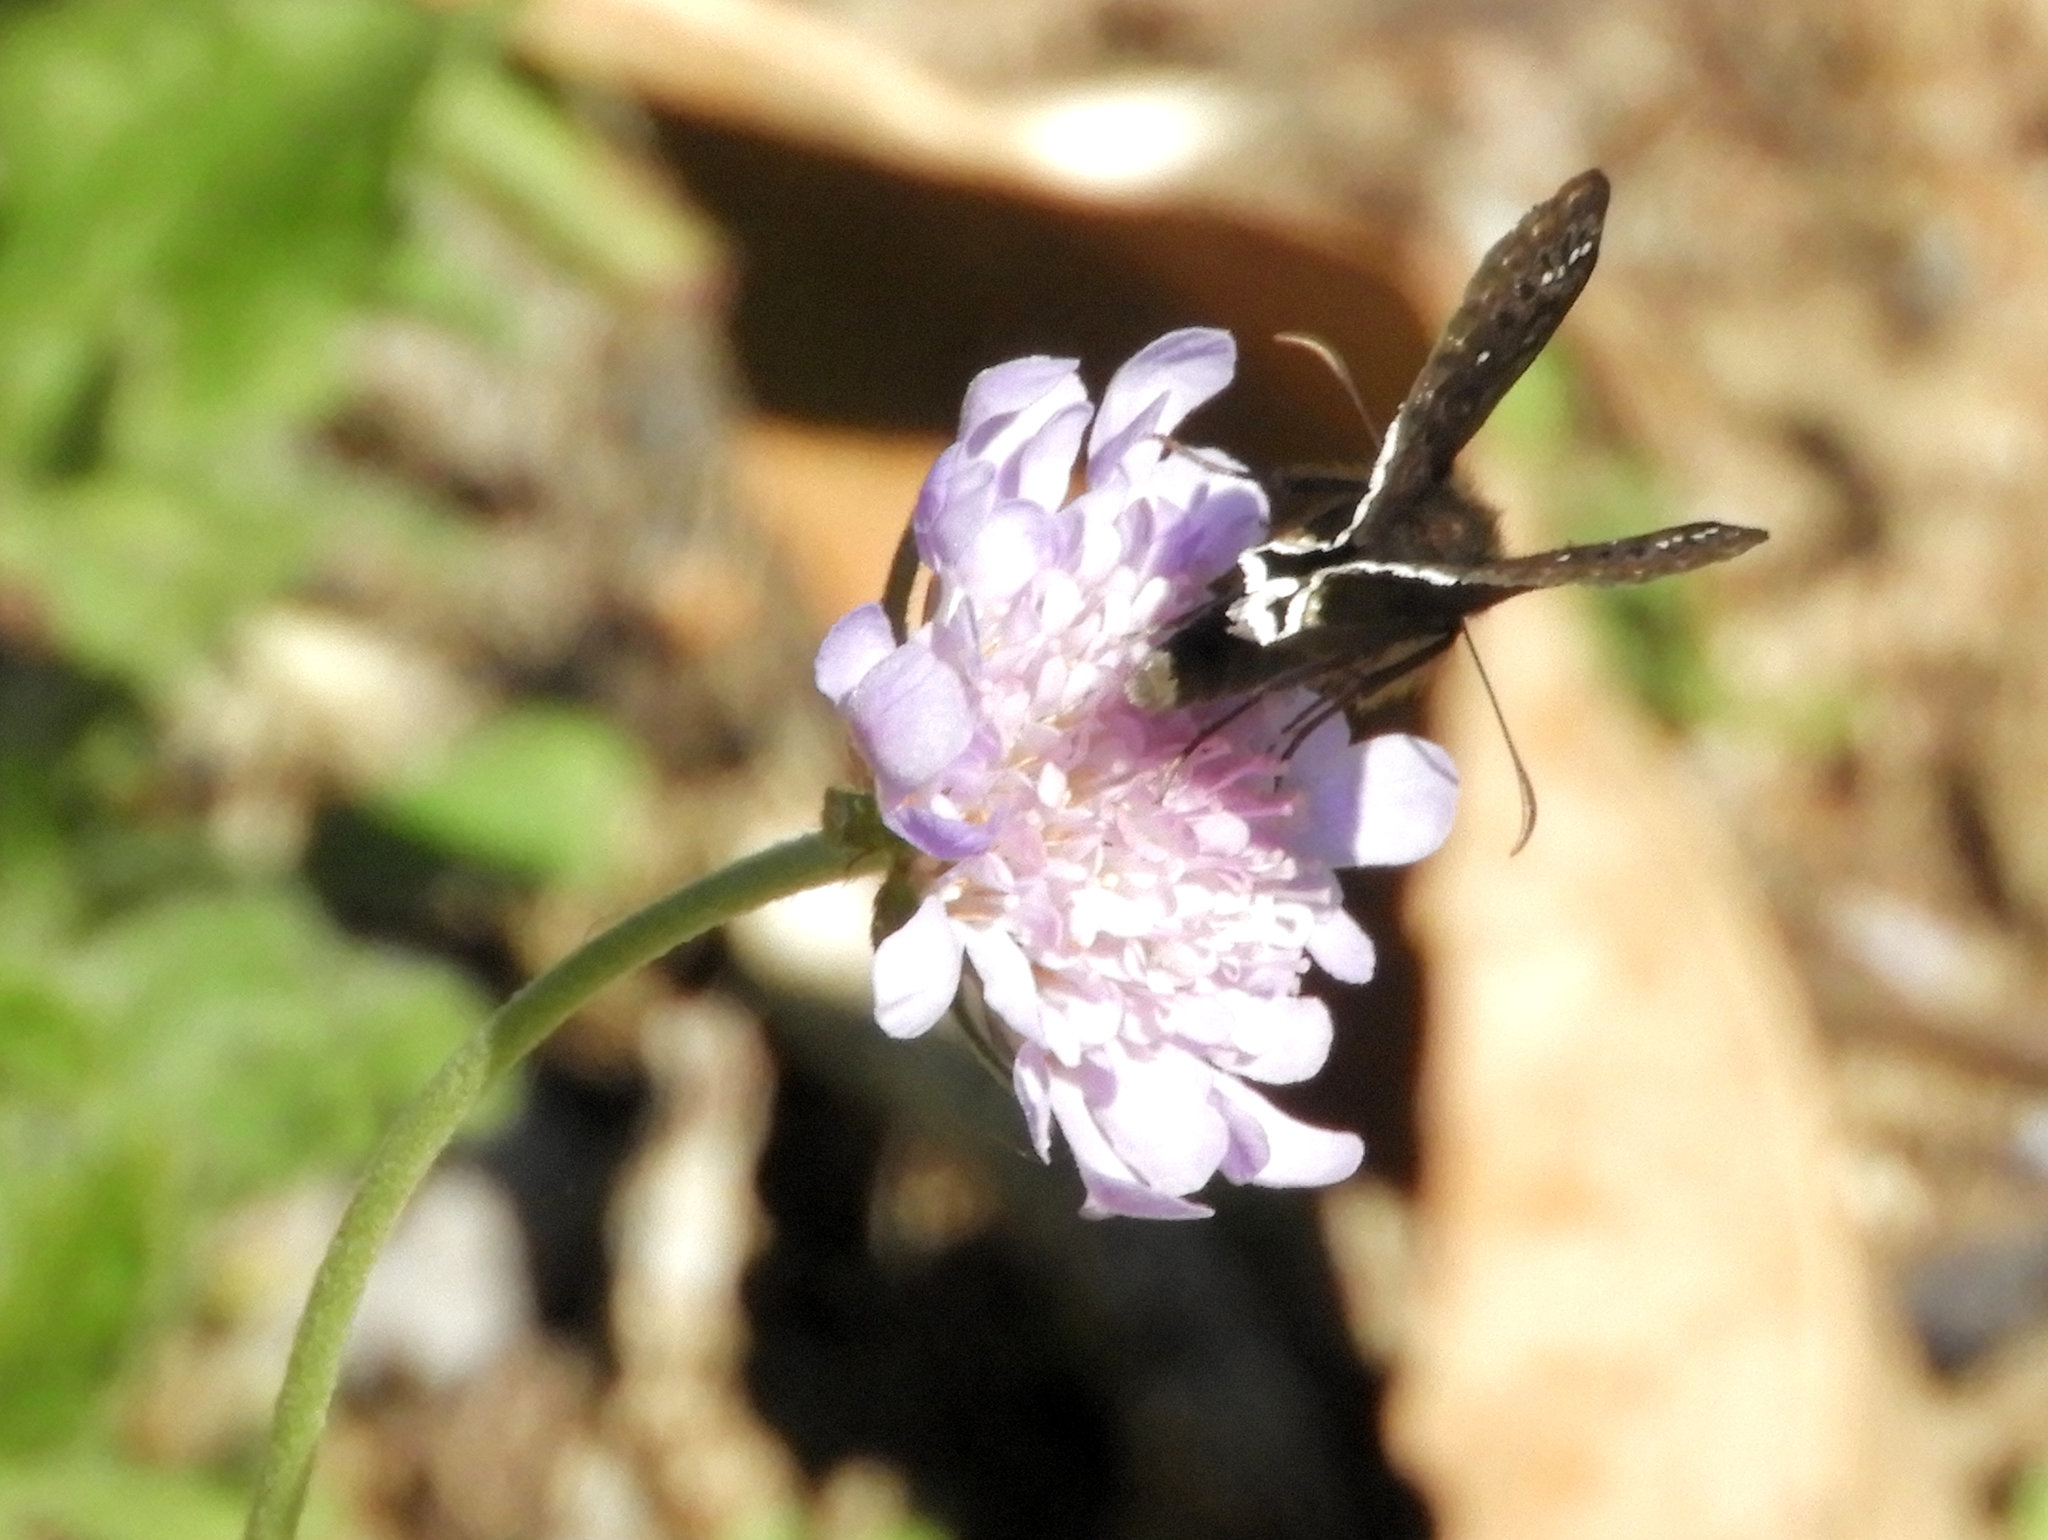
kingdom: Animalia
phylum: Arthropoda
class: Insecta
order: Lepidoptera
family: Hesperiidae
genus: Erynnis
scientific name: Erynnis tristis
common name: Mournful duskywing
